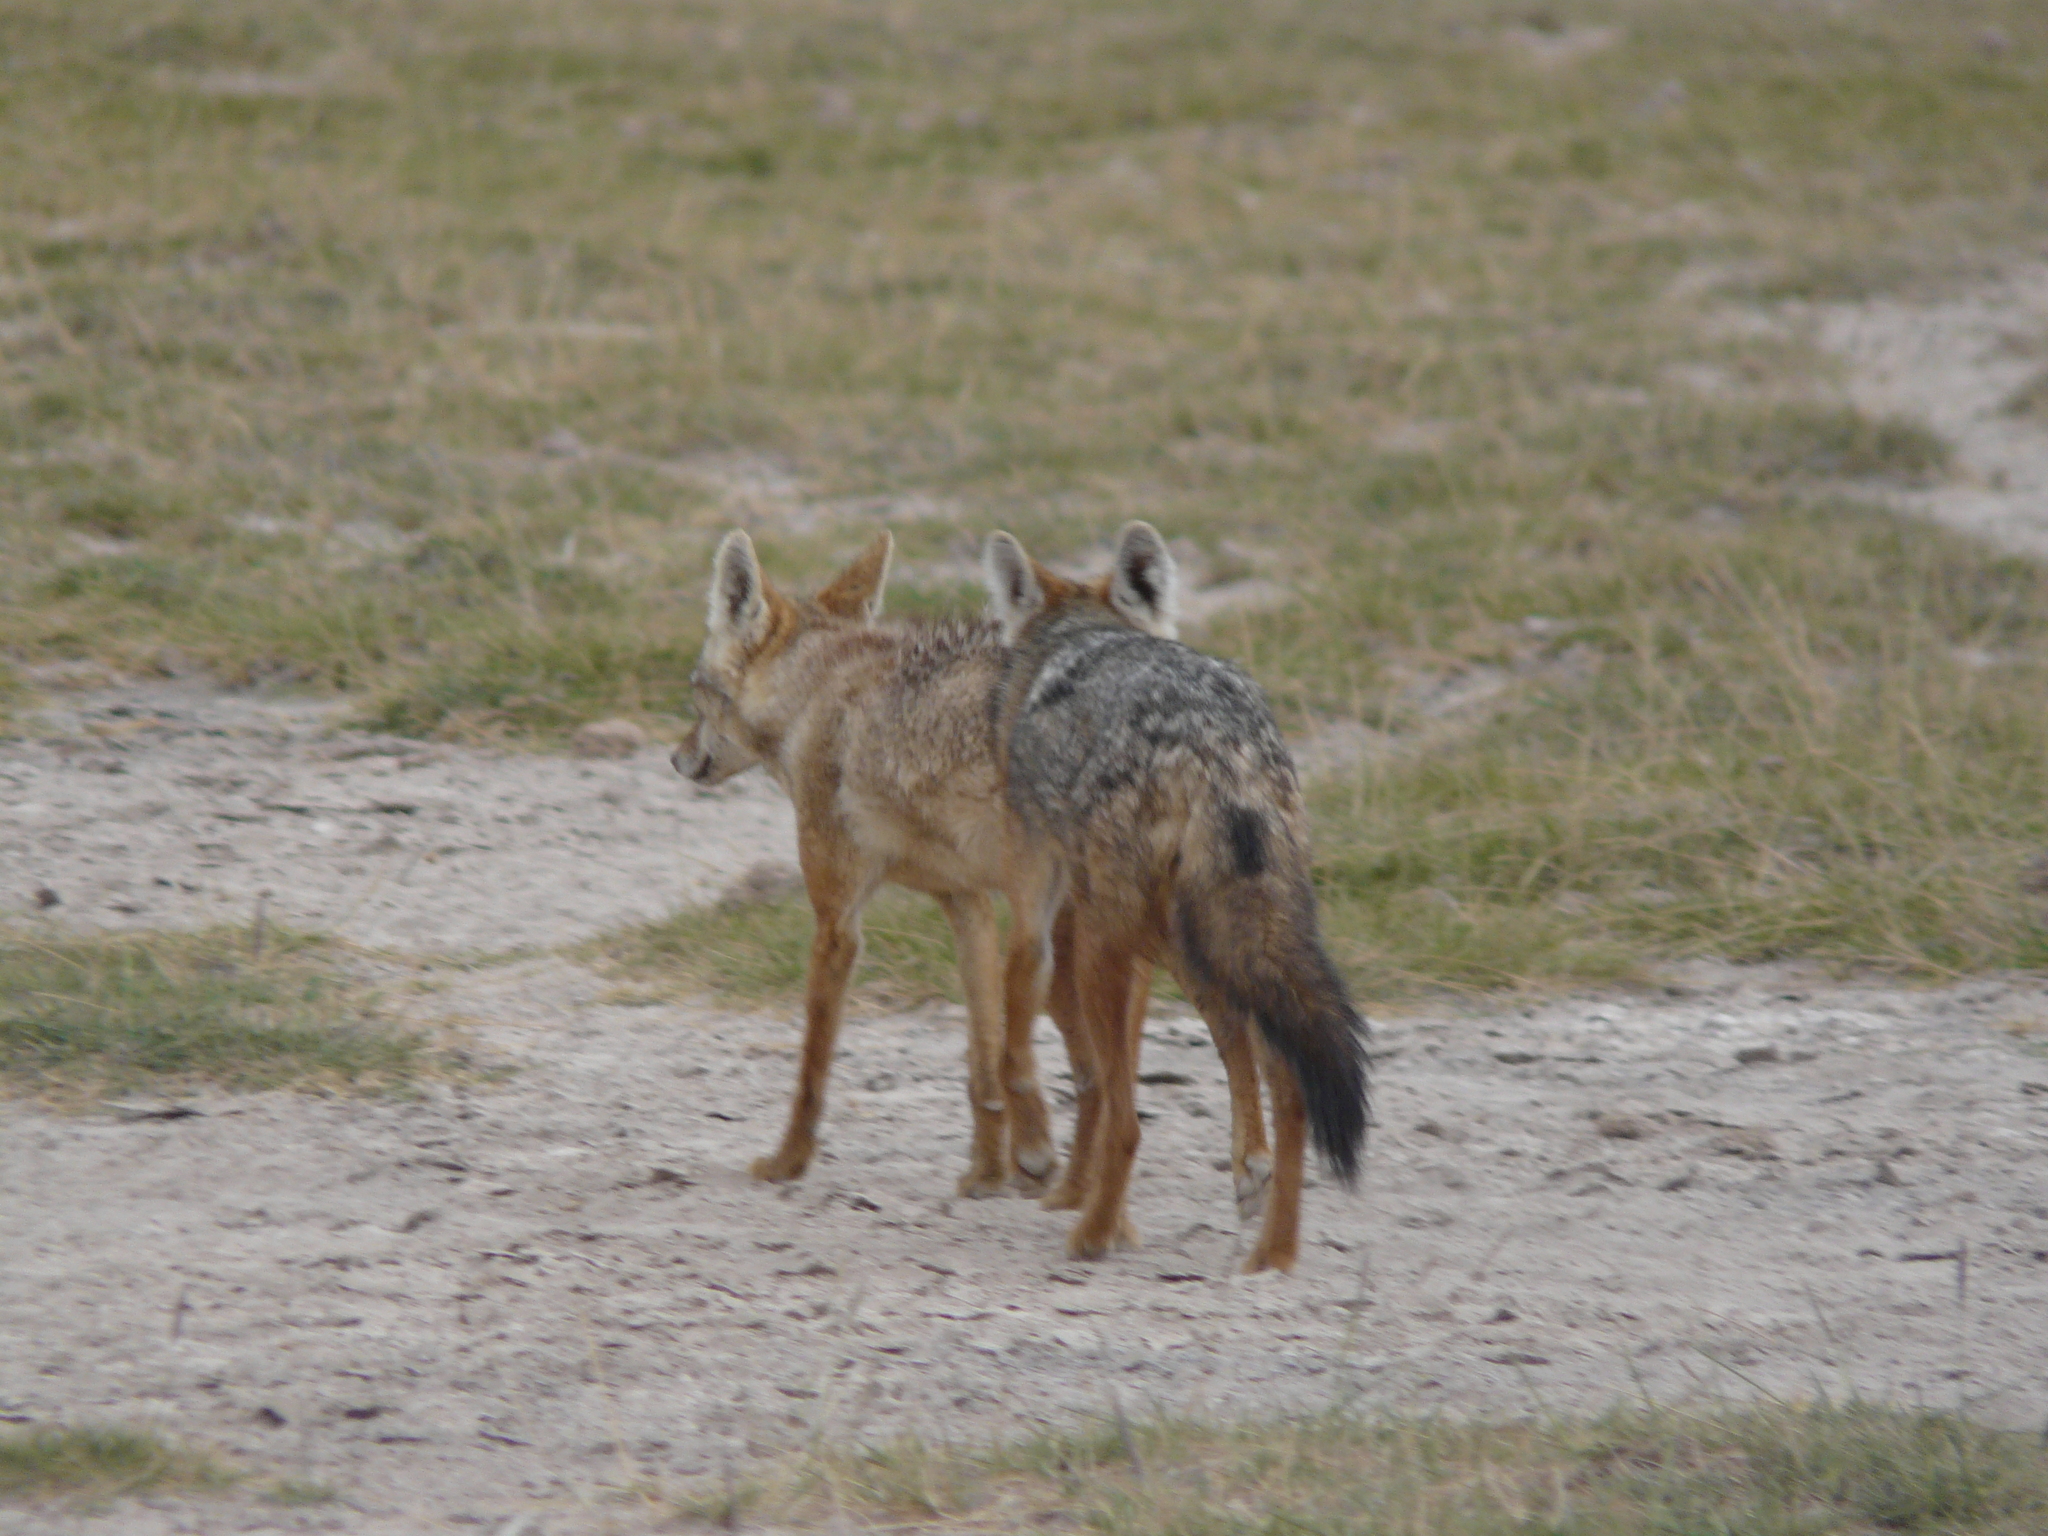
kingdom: Animalia
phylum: Chordata
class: Mammalia
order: Carnivora
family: Canidae
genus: Canis
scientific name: Canis lupaster
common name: African golden wolf
